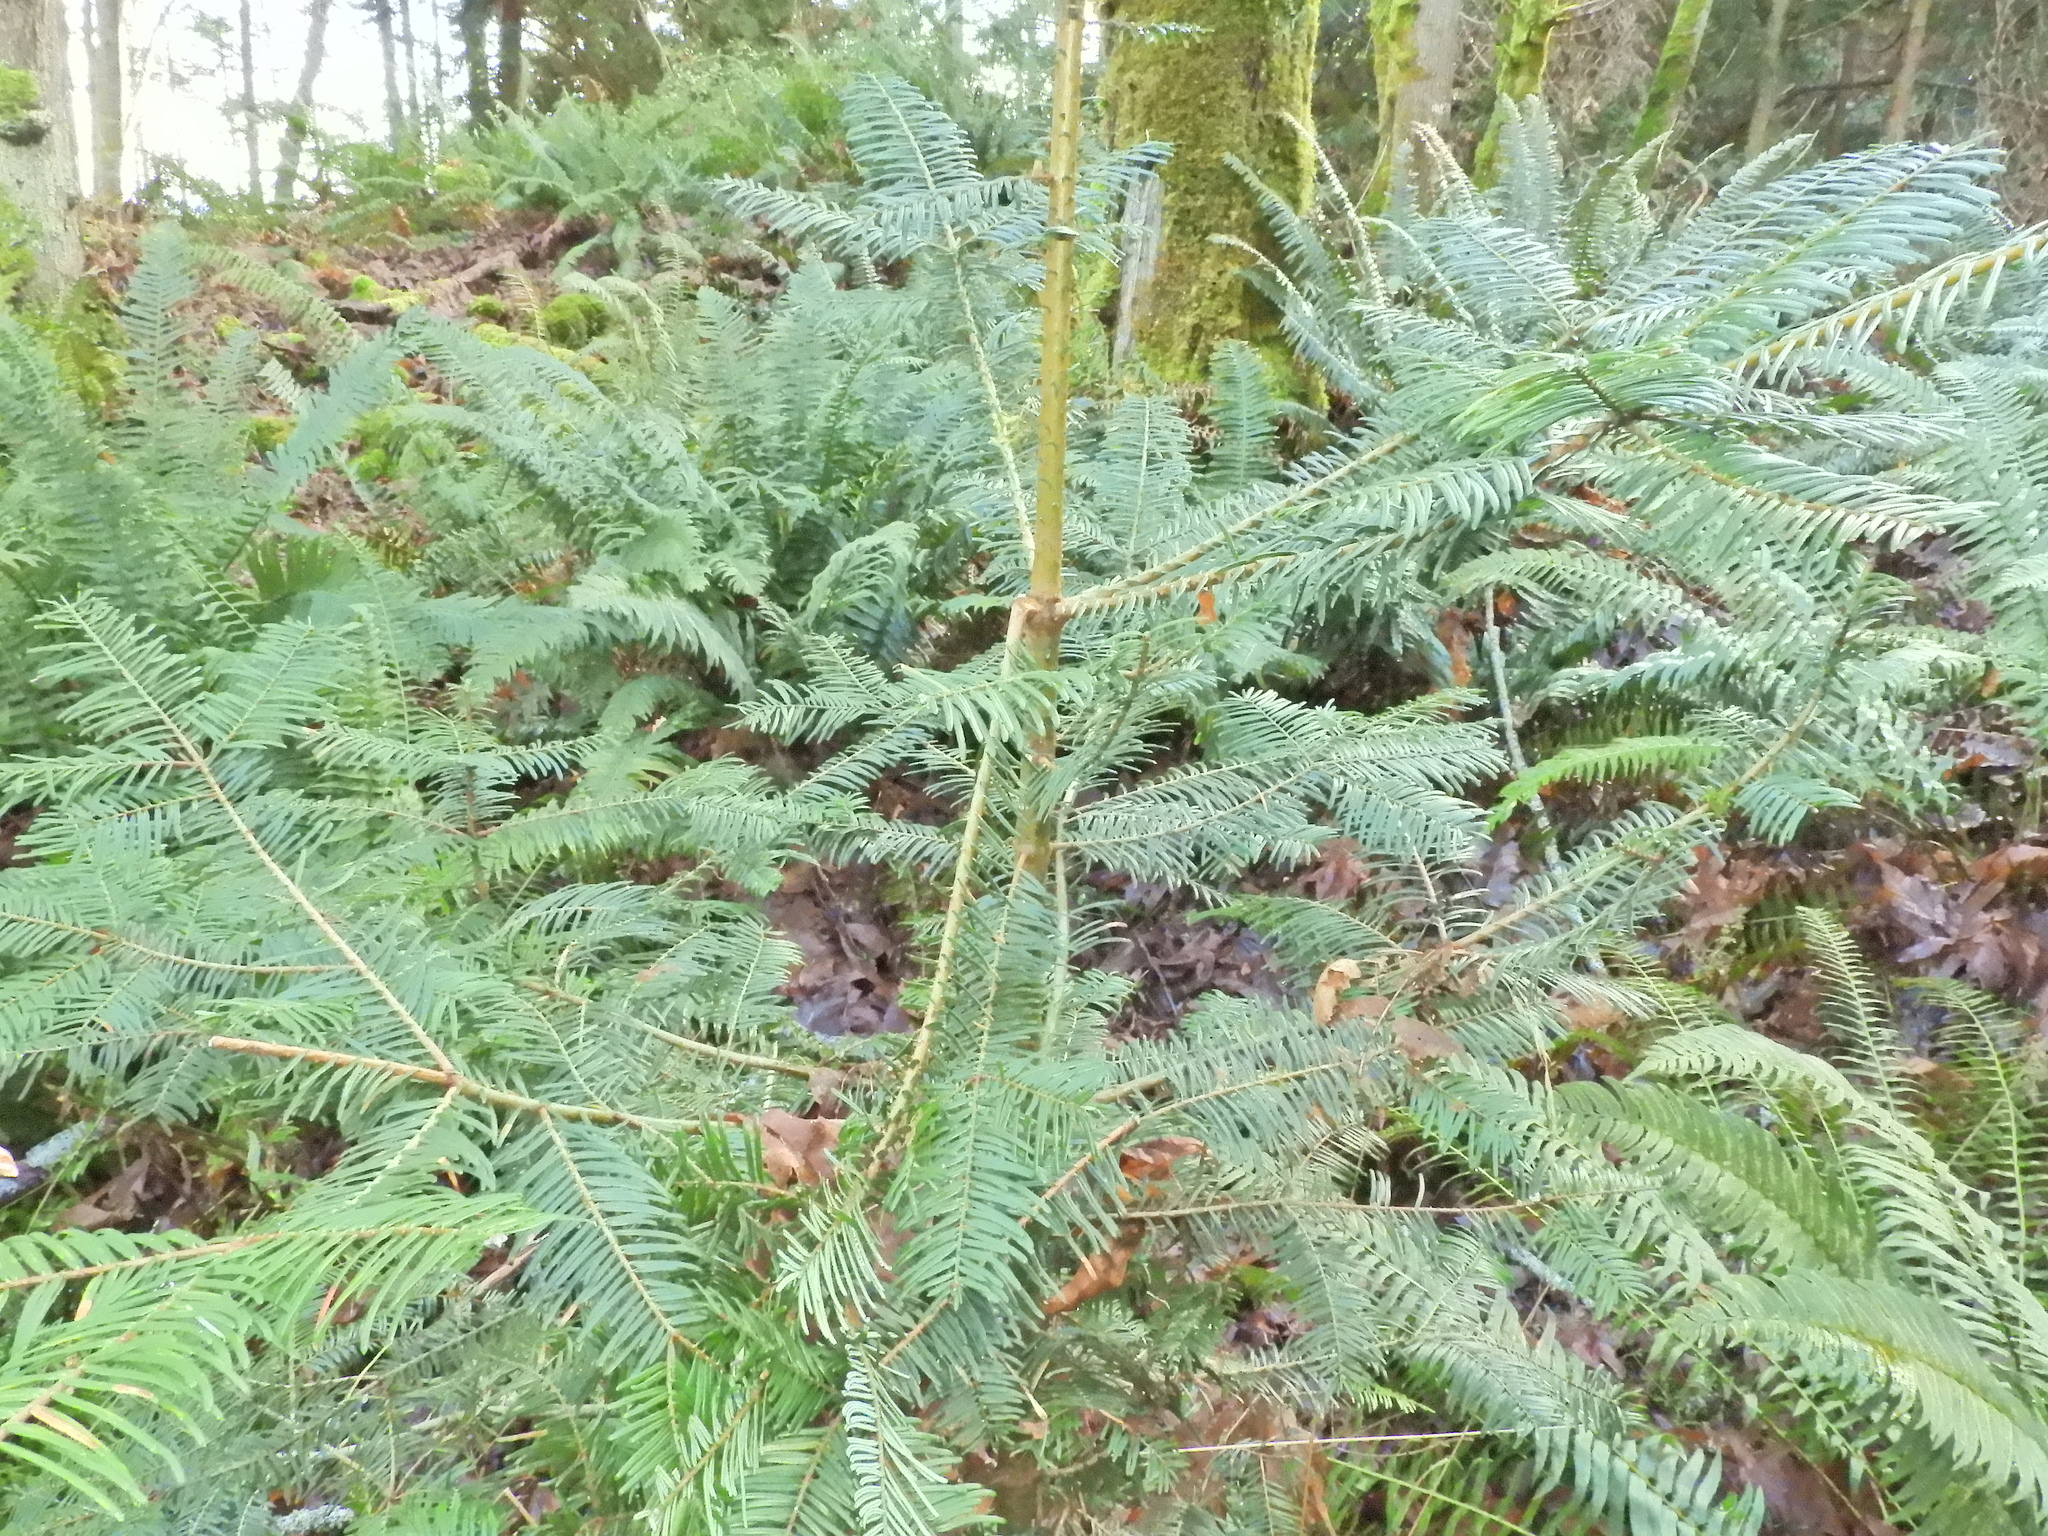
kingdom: Plantae
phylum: Tracheophyta
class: Pinopsida
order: Pinales
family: Pinaceae
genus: Abies
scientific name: Abies grandis
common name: Giant fir
